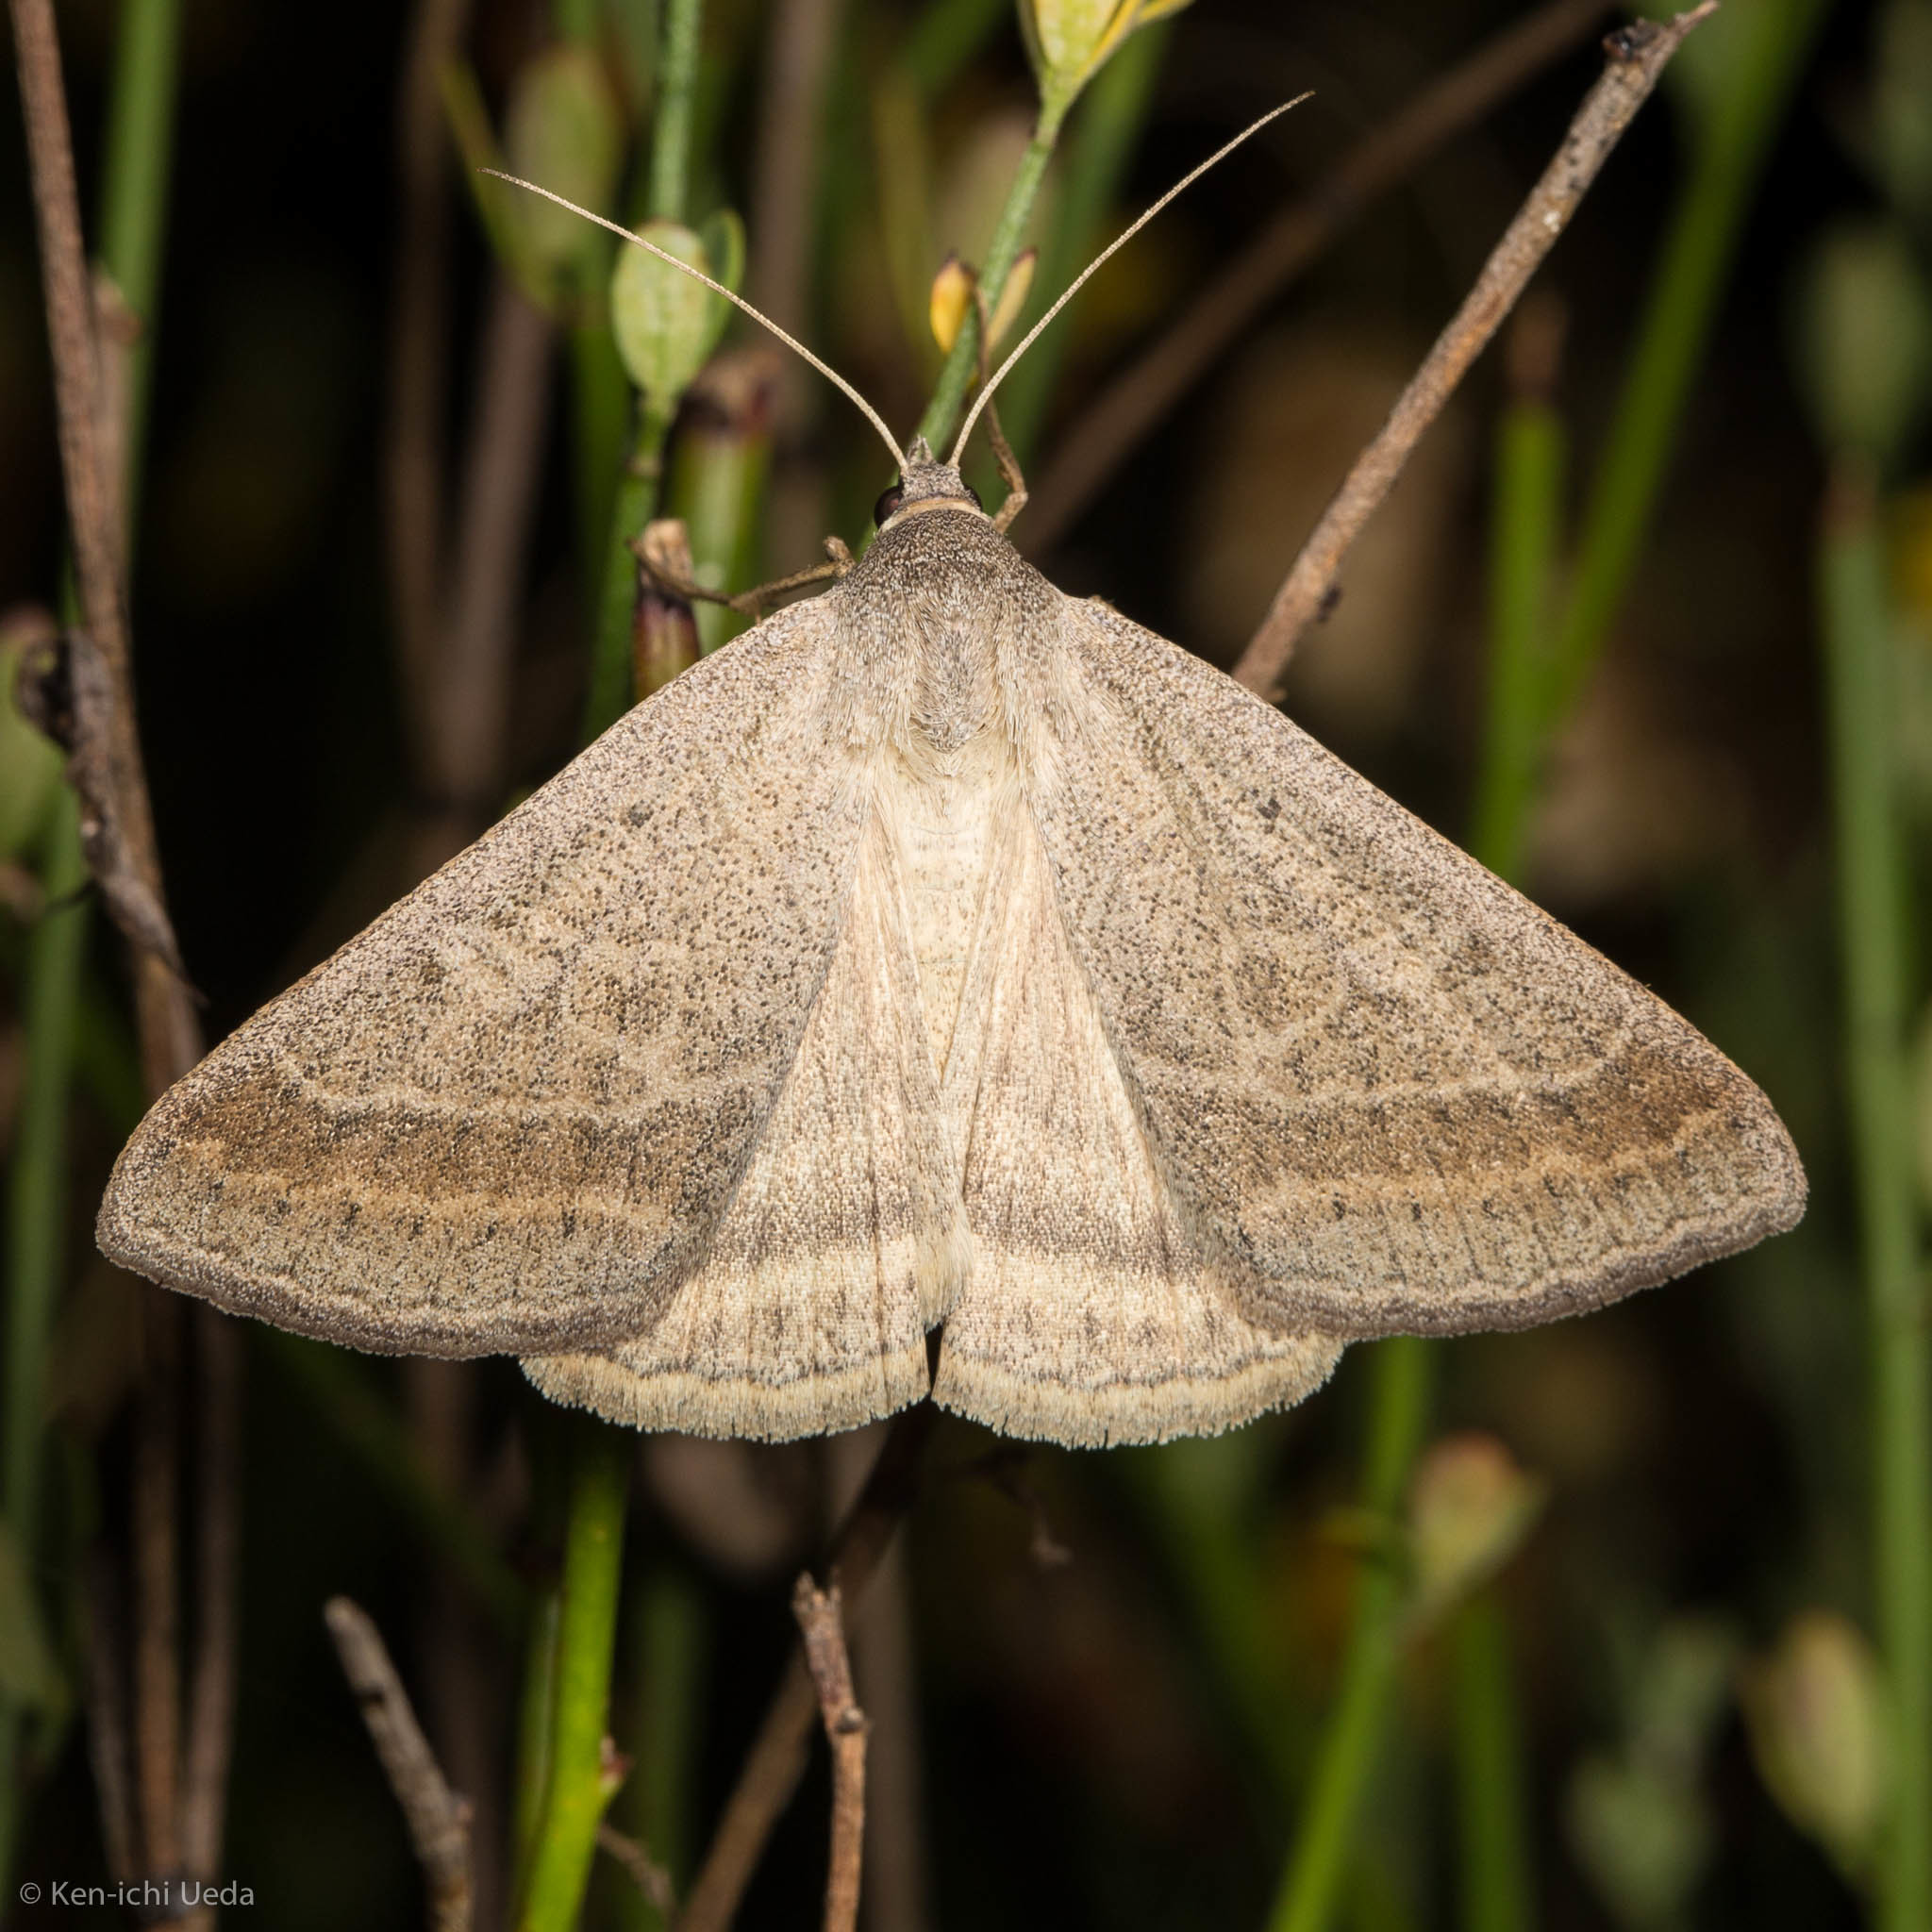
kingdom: Animalia
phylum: Arthropoda
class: Insecta
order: Lepidoptera
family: Erebidae
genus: Caenurgia
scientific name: Caenurgia togataria
